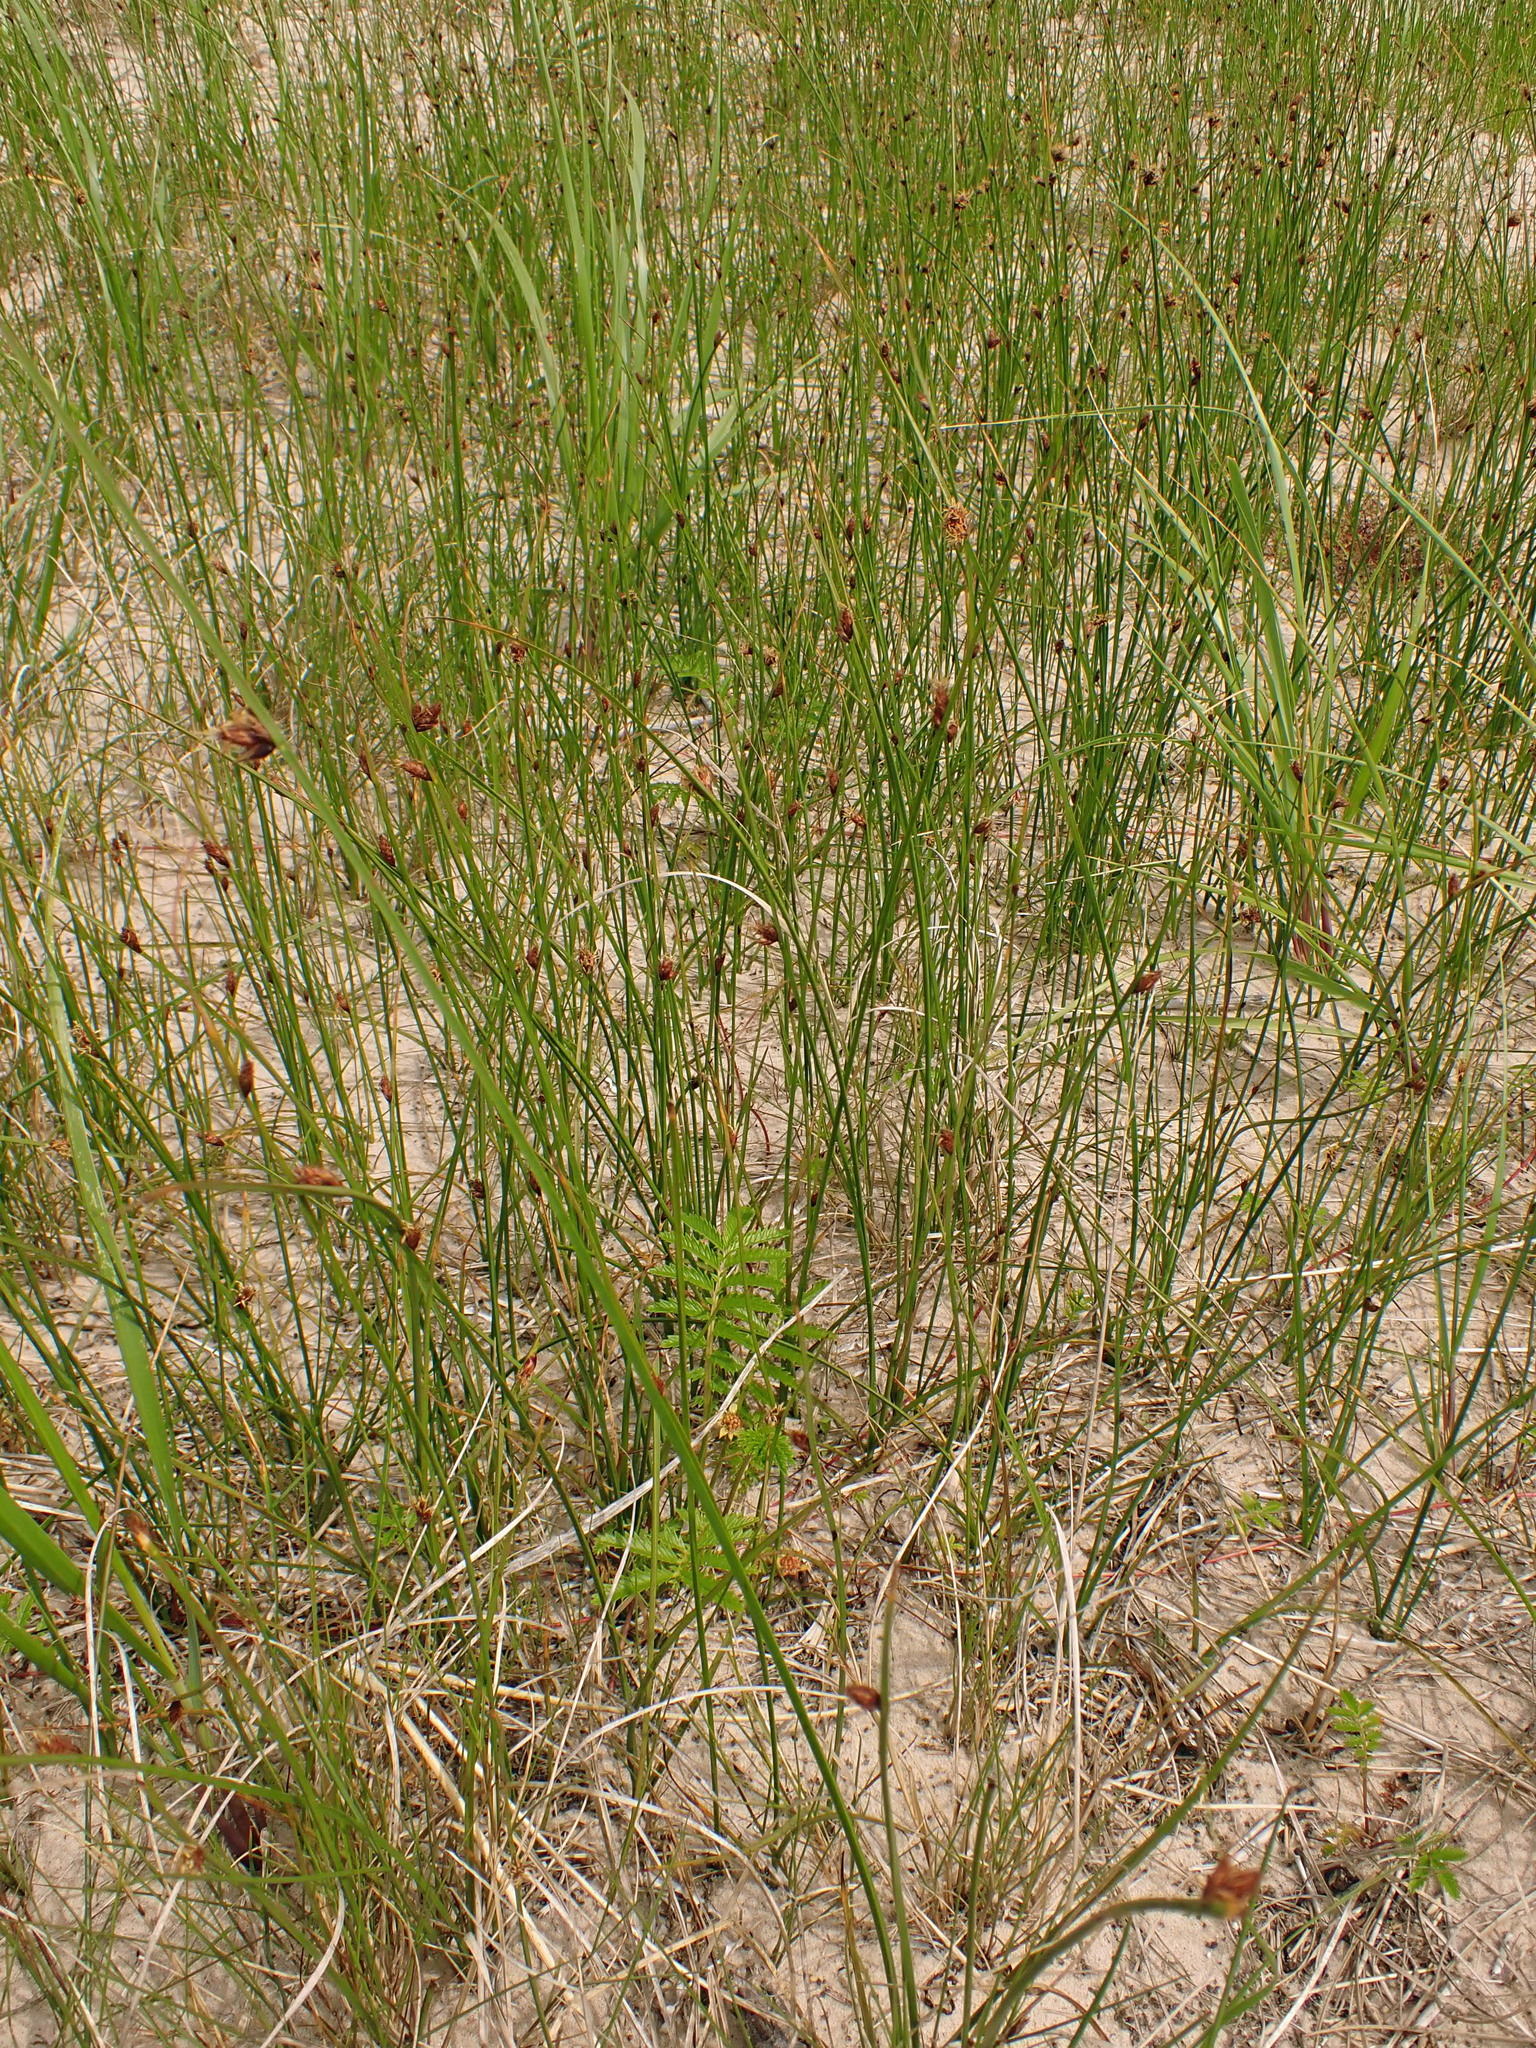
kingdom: Plantae
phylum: Tracheophyta
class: Liliopsida
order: Poales
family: Cyperaceae
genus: Schoenoplectus
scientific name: Schoenoplectus pungens
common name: Sharp club-rush
